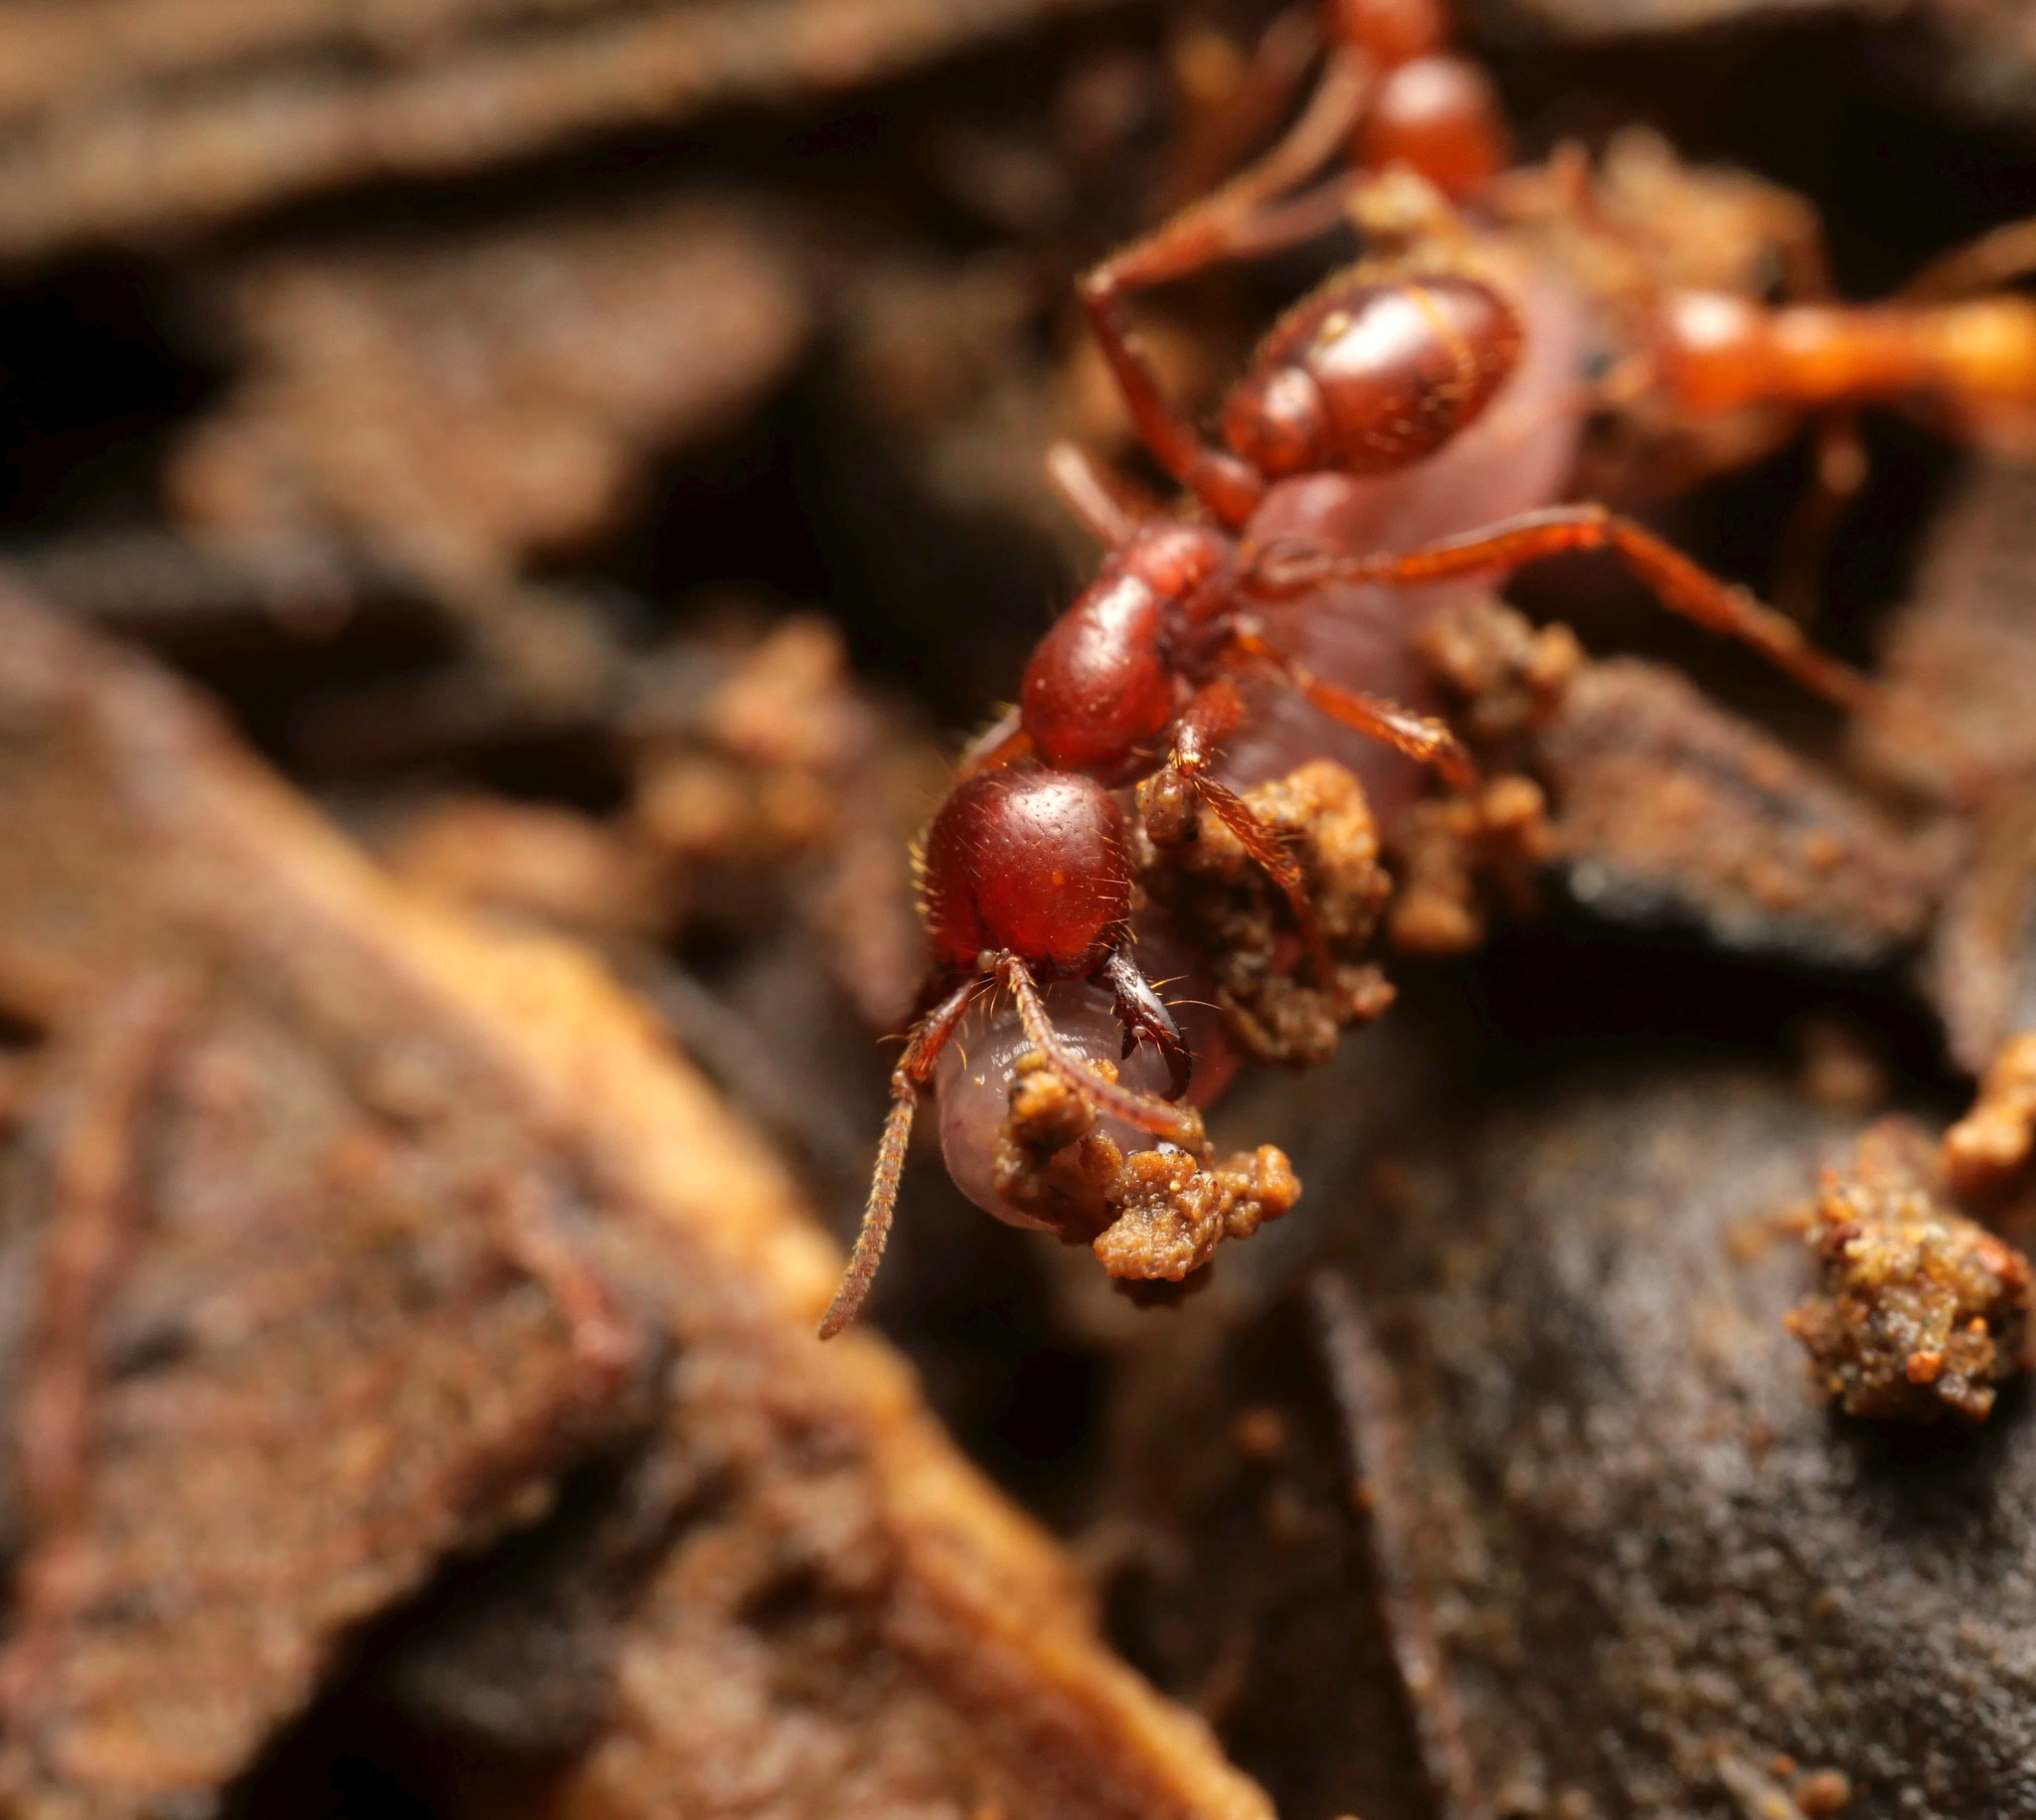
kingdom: Animalia
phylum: Arthropoda
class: Insecta
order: Hymenoptera
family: Formicidae
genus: Cheliomyrmex
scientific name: Cheliomyrmex andicola
